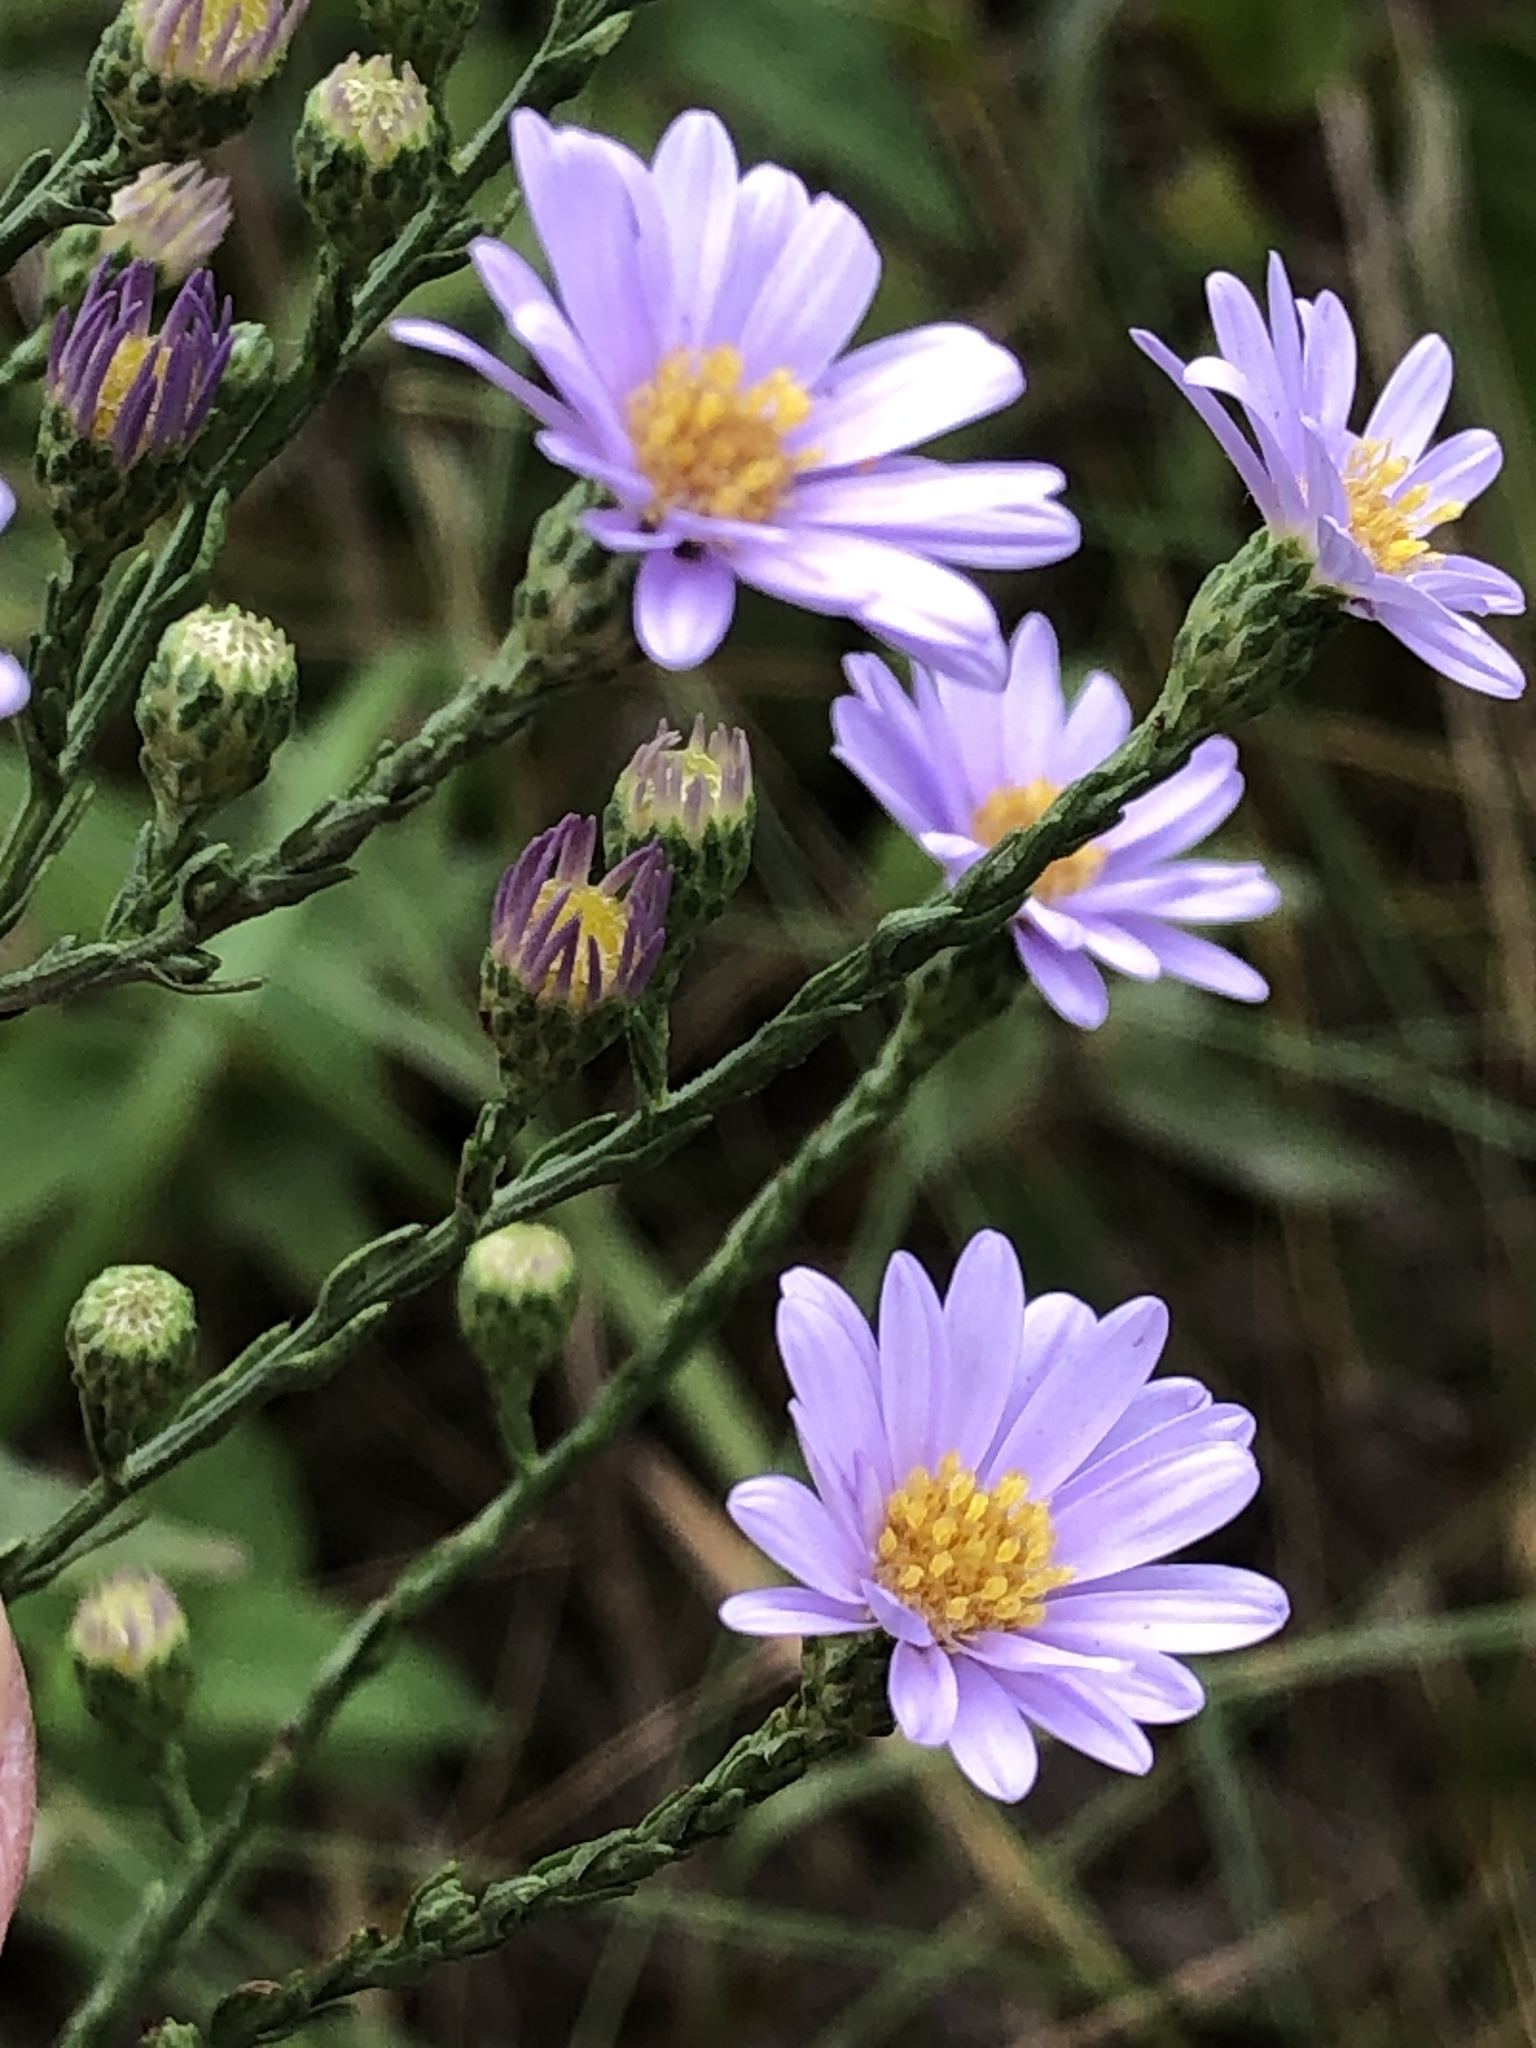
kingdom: Plantae
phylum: Tracheophyta
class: Magnoliopsida
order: Asterales
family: Asteraceae
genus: Symphyotrichum
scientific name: Symphyotrichum oolentangiense
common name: Azure aster
